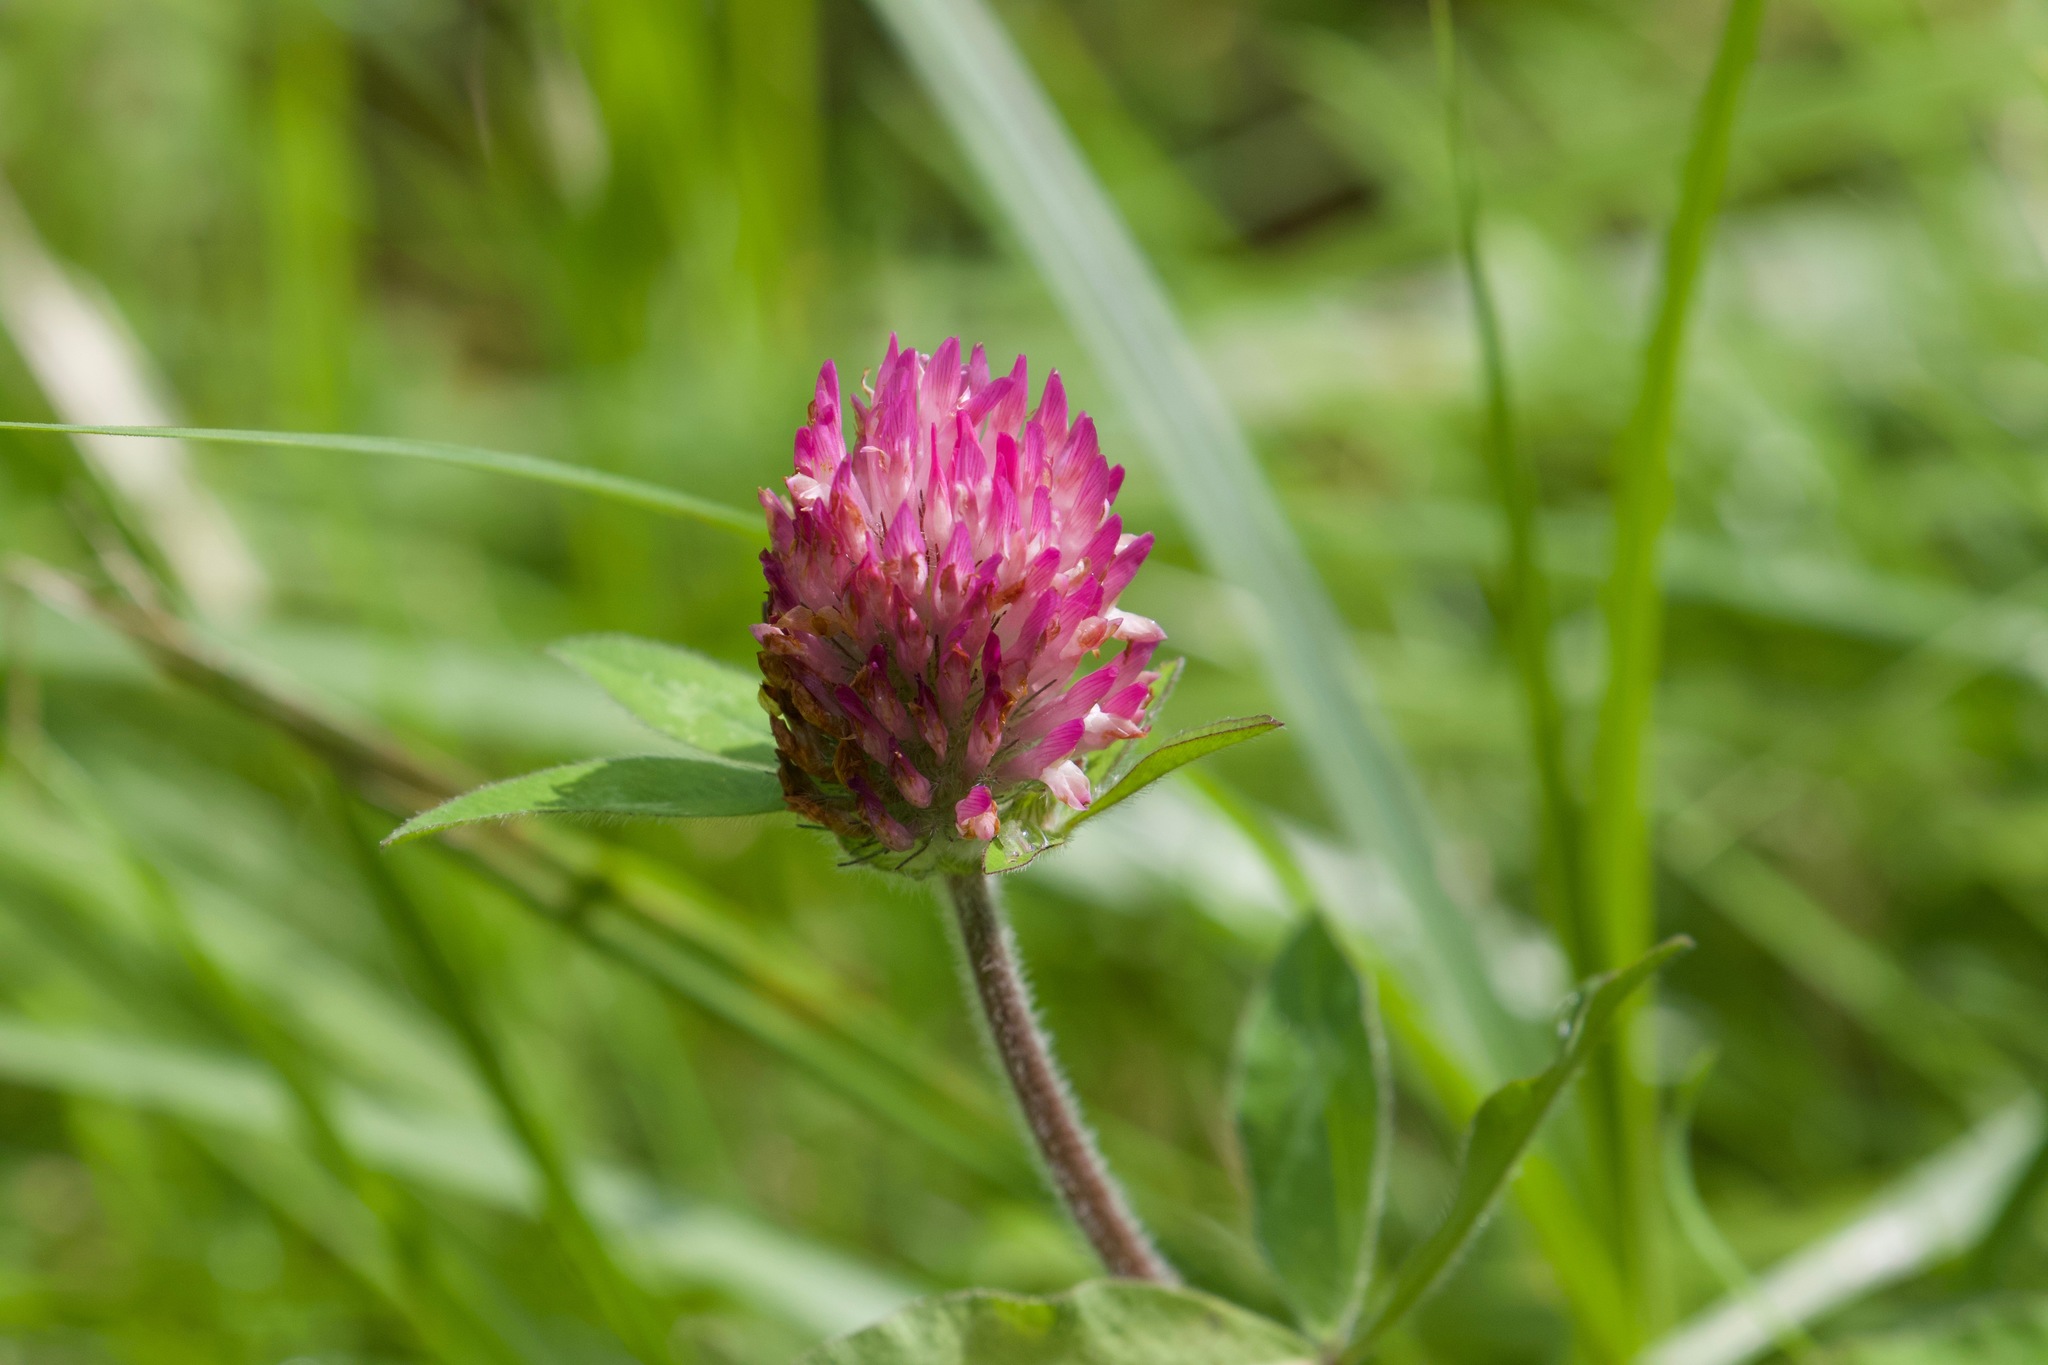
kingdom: Plantae
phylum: Tracheophyta
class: Magnoliopsida
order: Fabales
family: Fabaceae
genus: Trifolium
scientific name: Trifolium pratense
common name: Red clover
